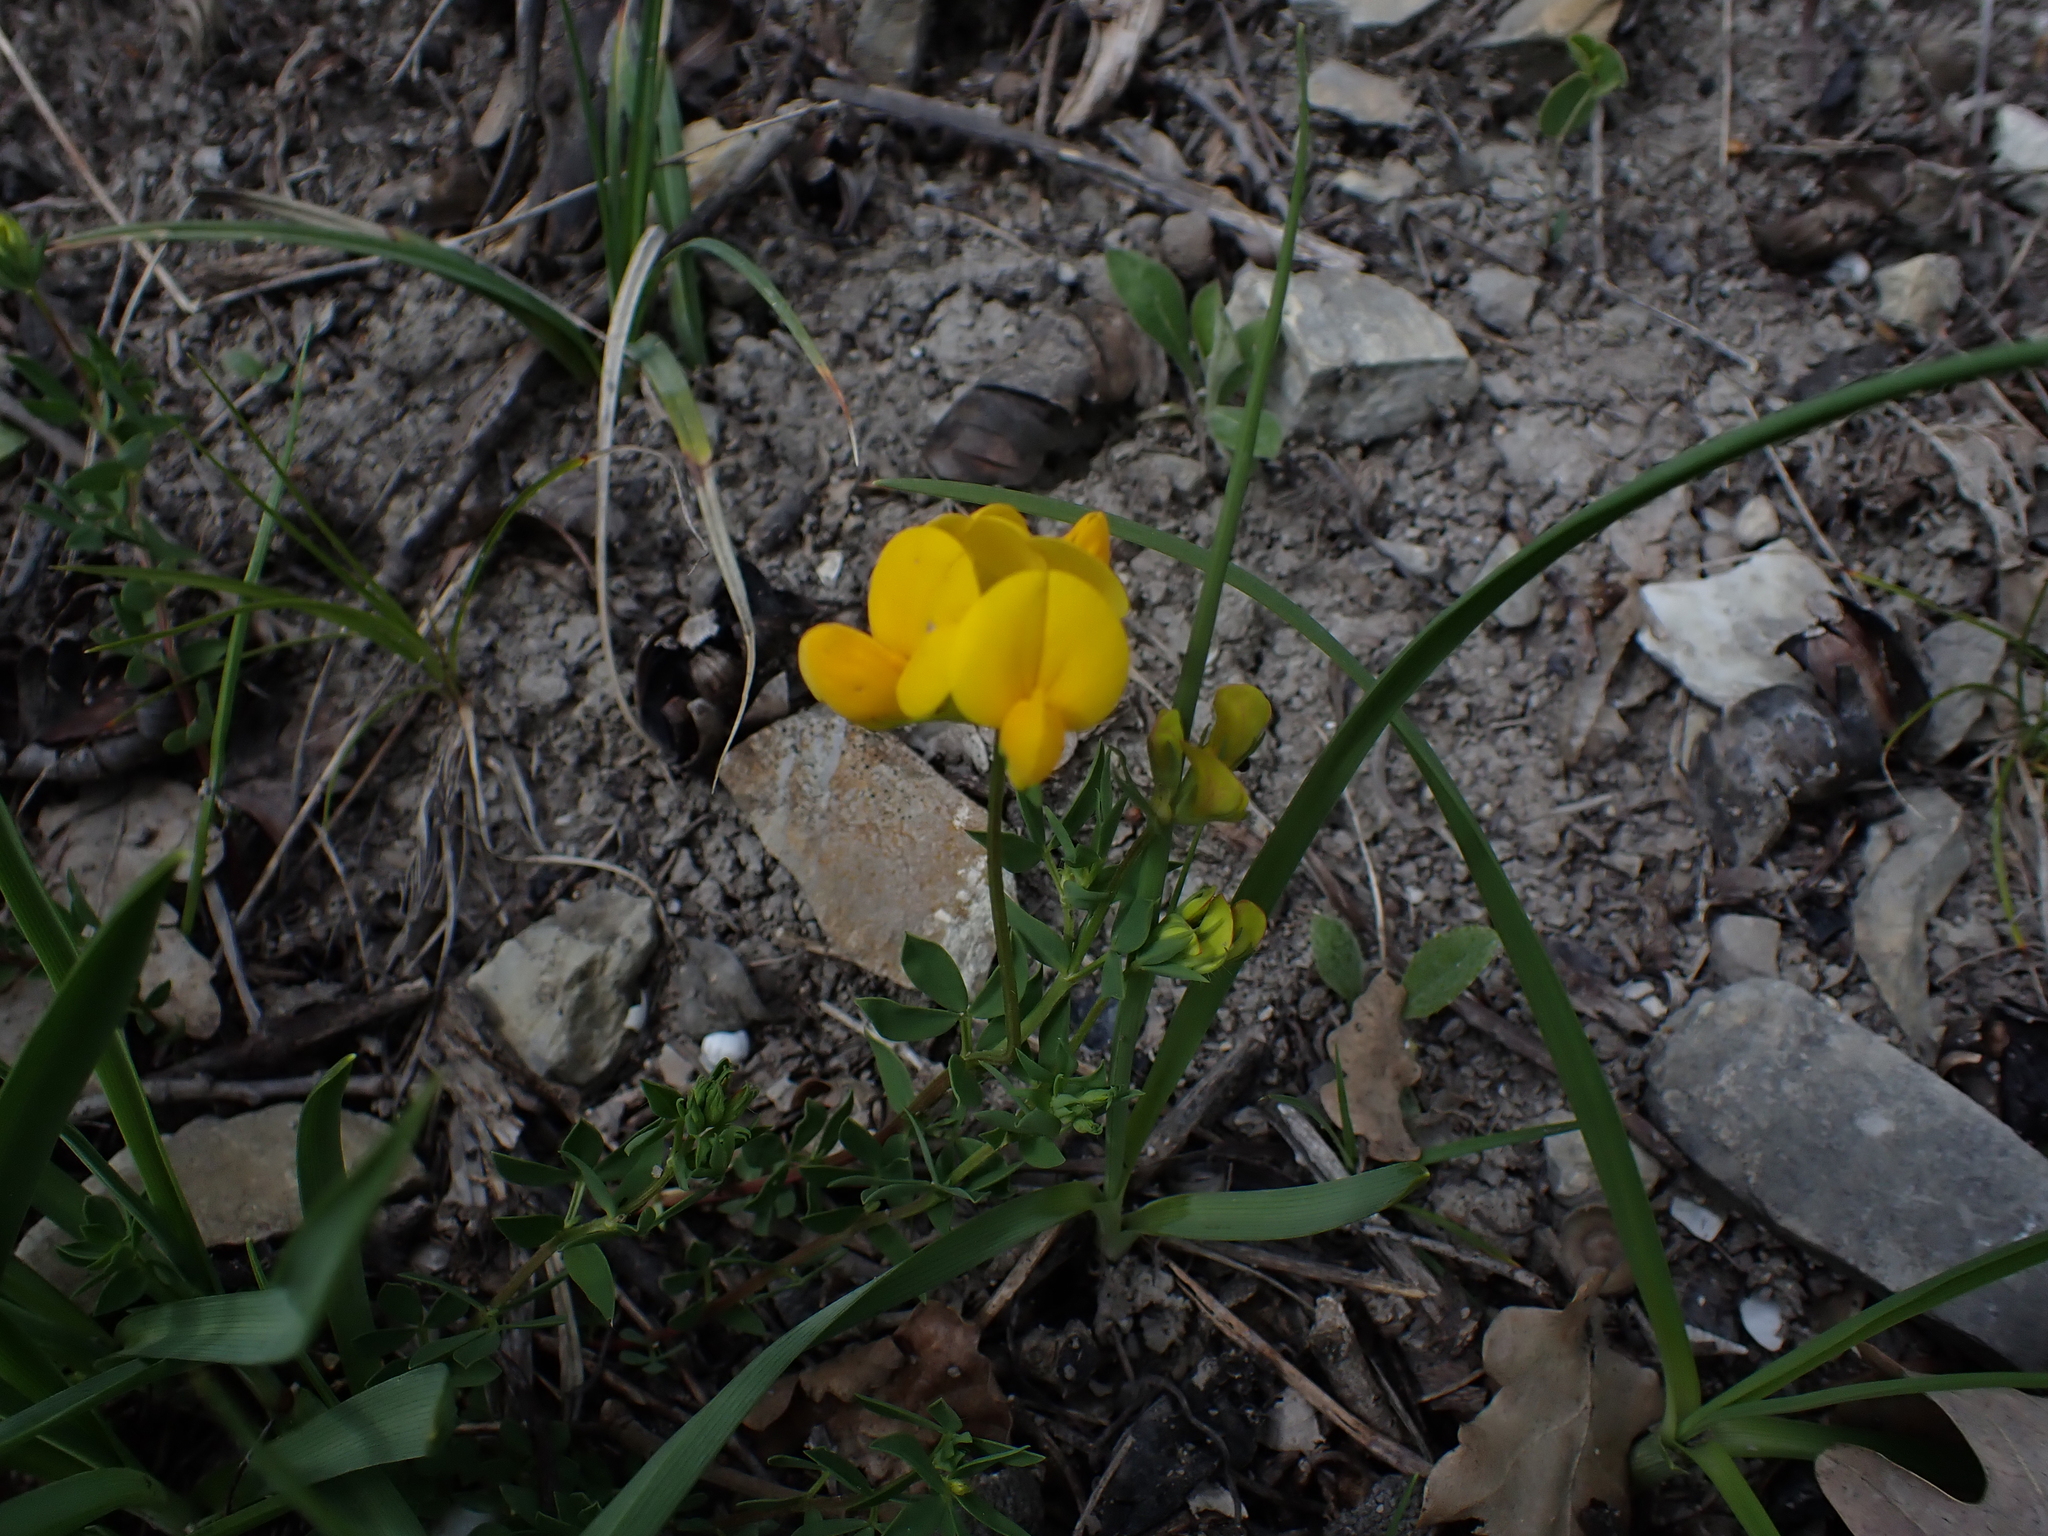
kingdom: Plantae
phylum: Tracheophyta
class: Magnoliopsida
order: Fabales
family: Fabaceae
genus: Lotus
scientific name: Lotus corniculatus
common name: Common bird's-foot-trefoil
